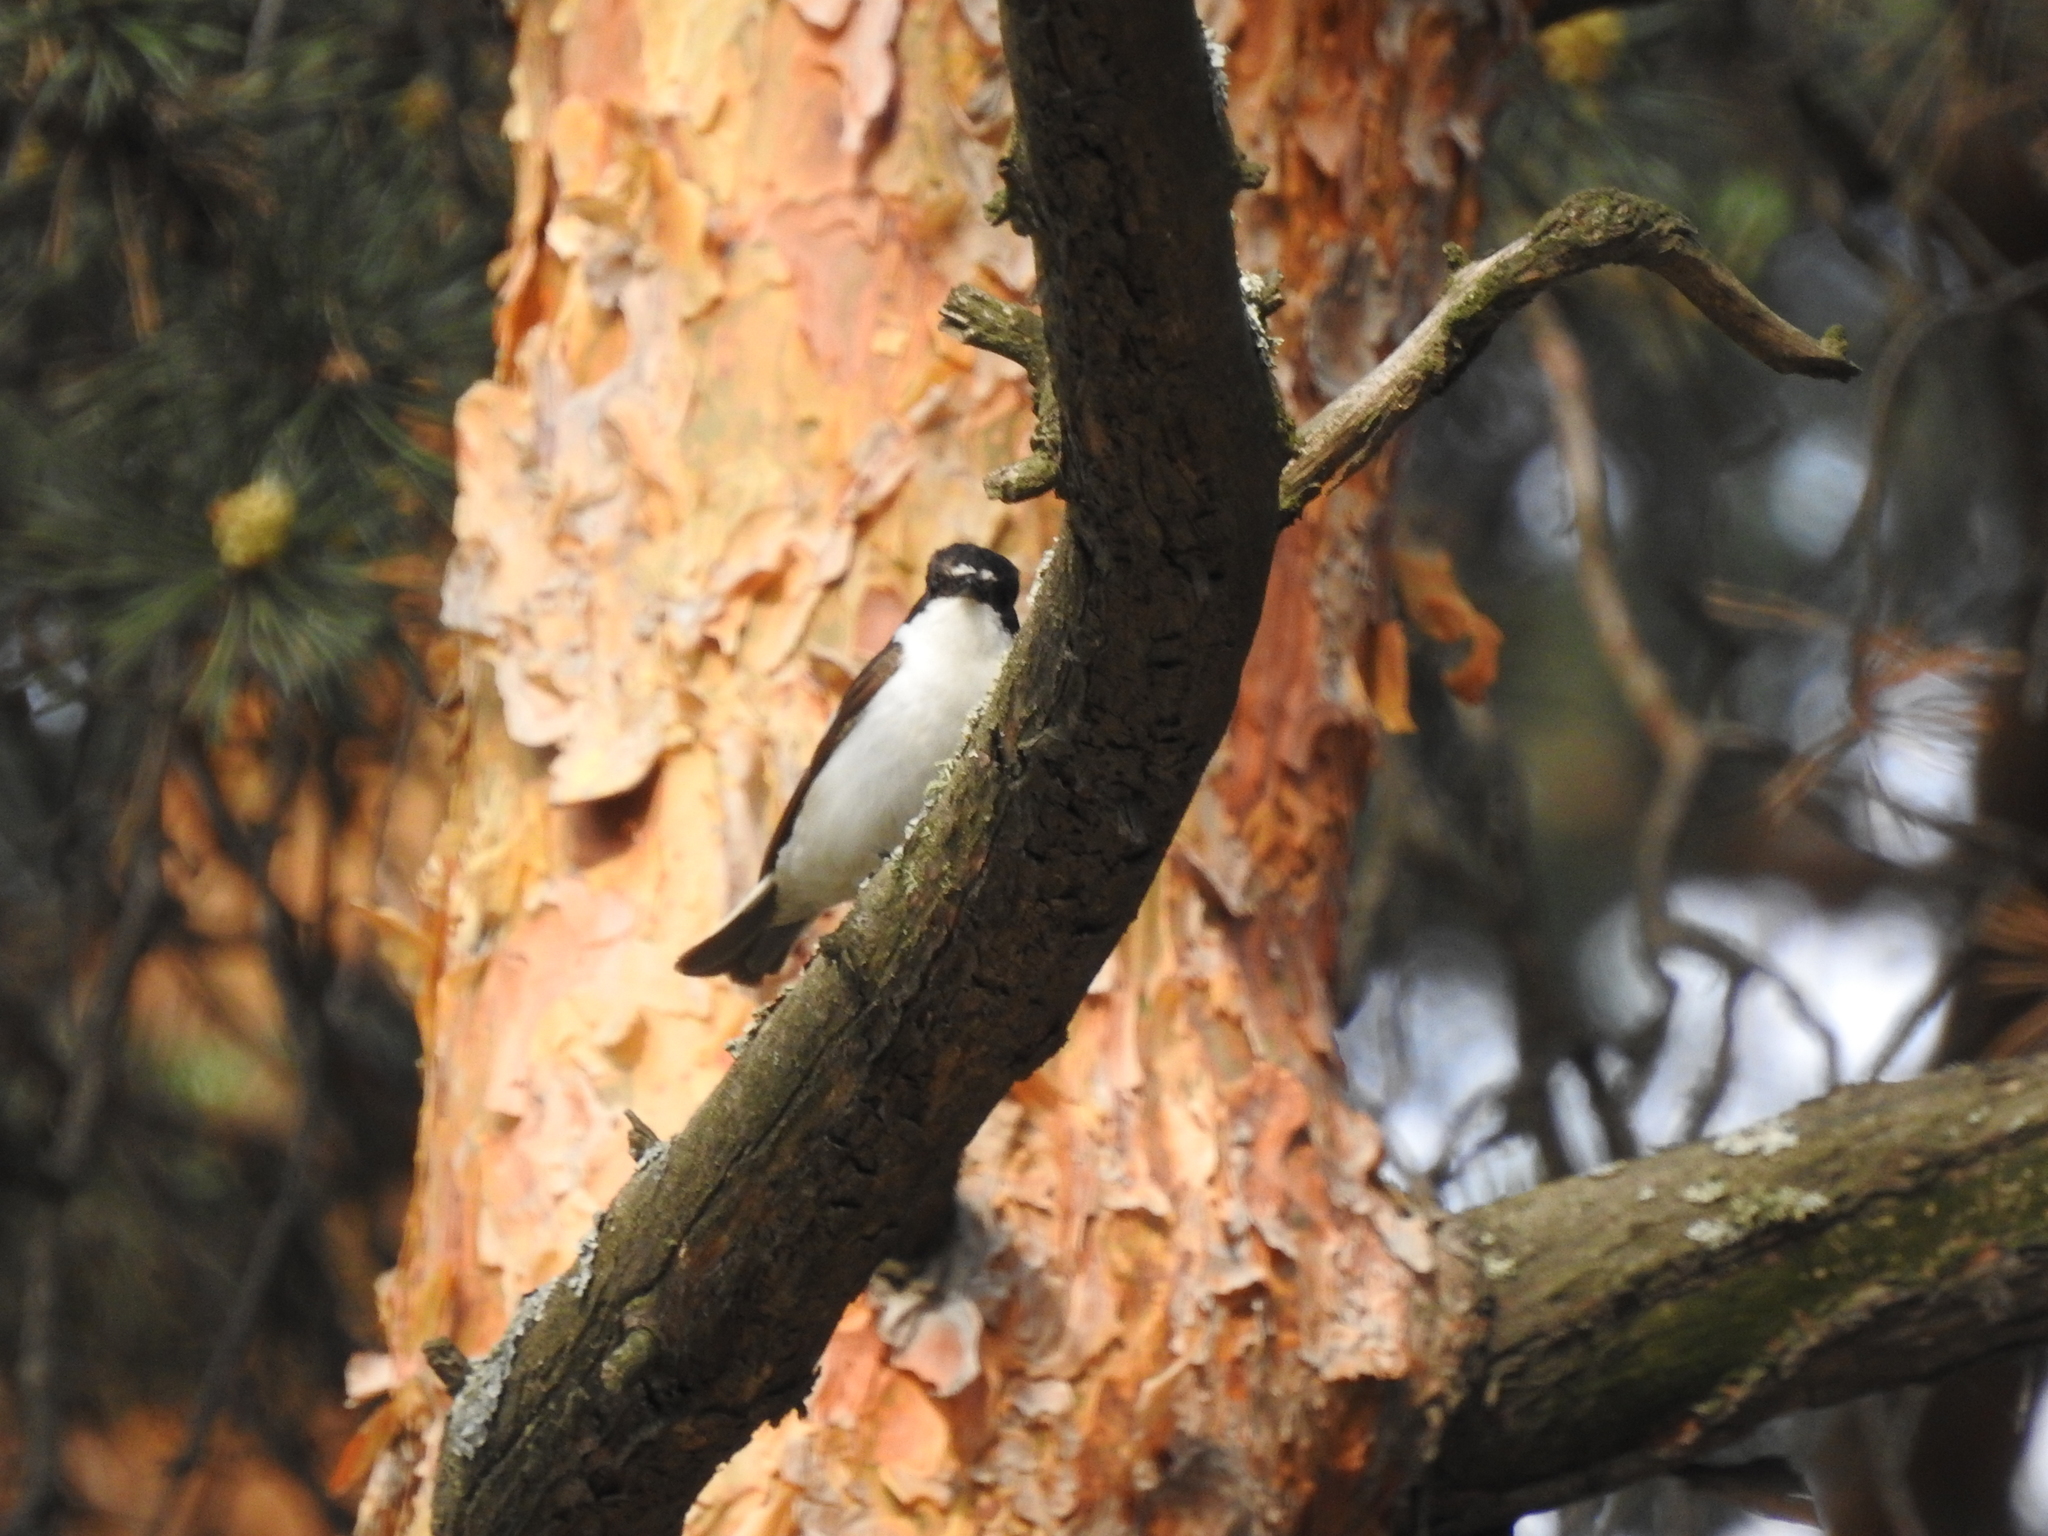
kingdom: Animalia
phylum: Chordata
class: Aves
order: Passeriformes
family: Muscicapidae
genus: Ficedula
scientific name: Ficedula hypoleuca
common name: European pied flycatcher
